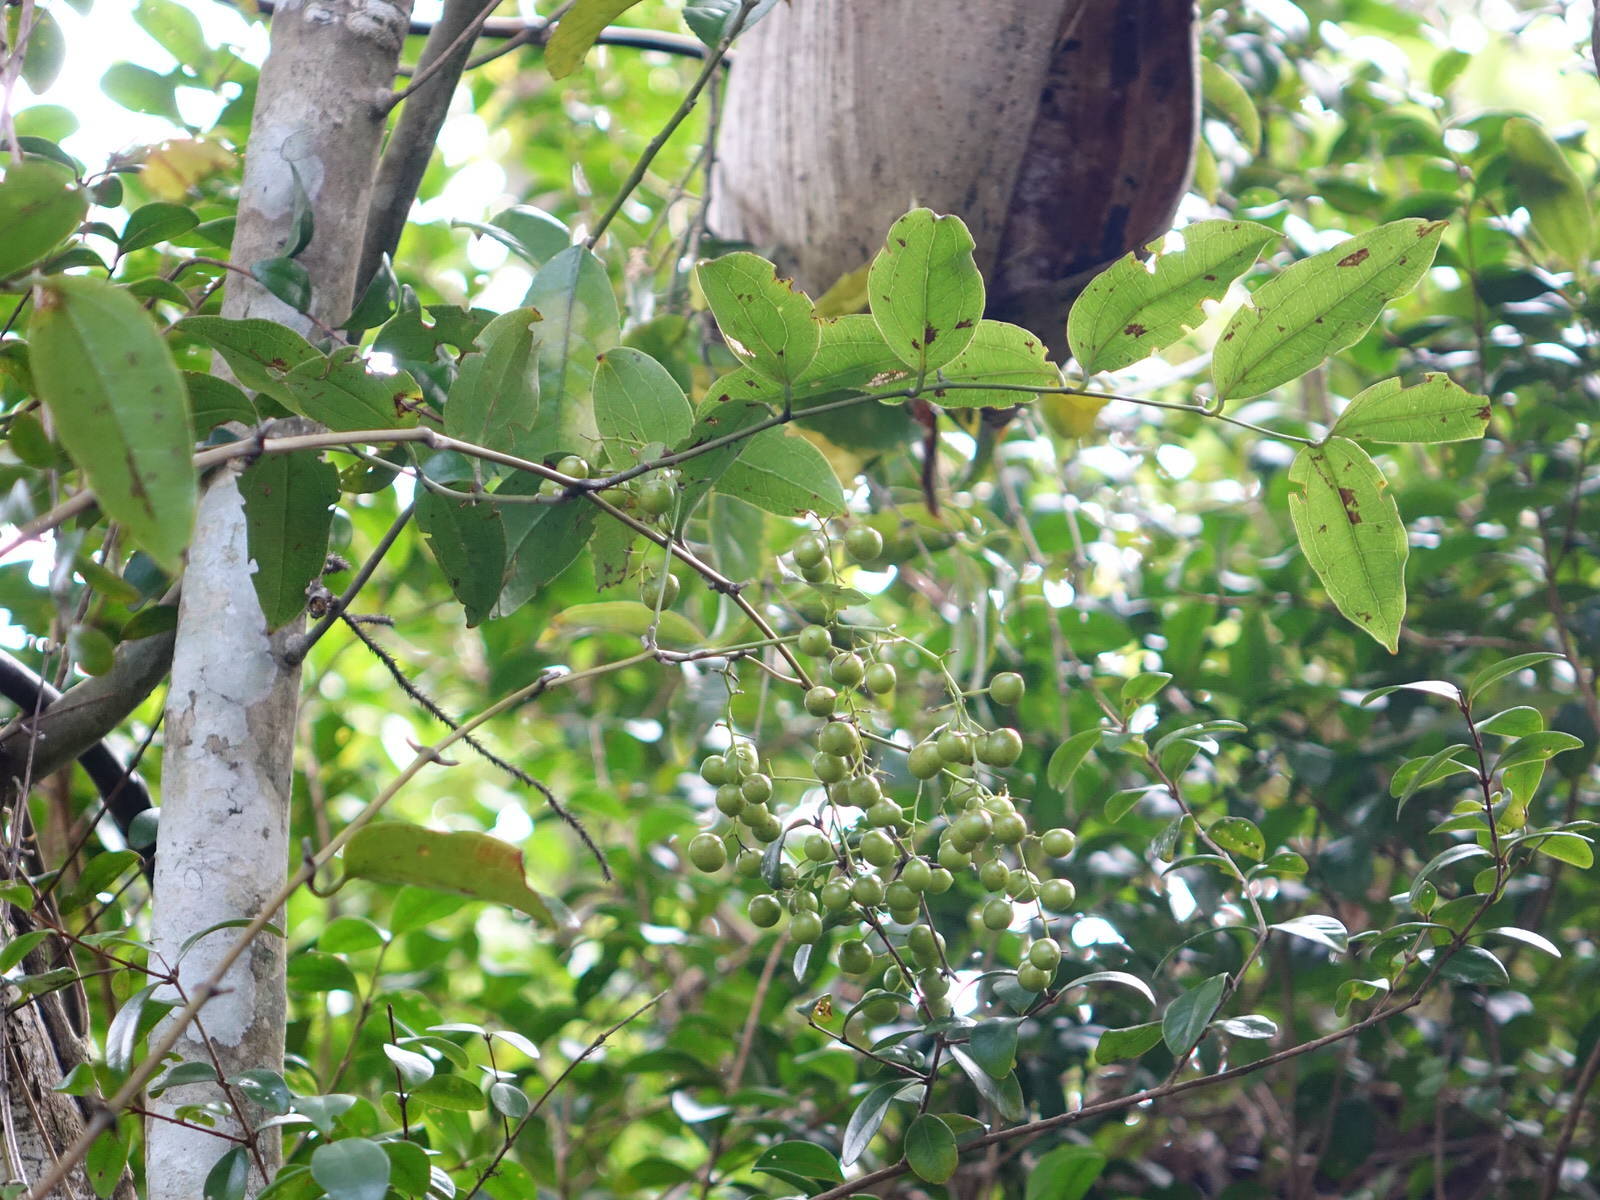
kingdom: Plantae
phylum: Tracheophyta
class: Liliopsida
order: Liliales
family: Ripogonaceae
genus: Ripogonum
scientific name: Ripogonum scandens
